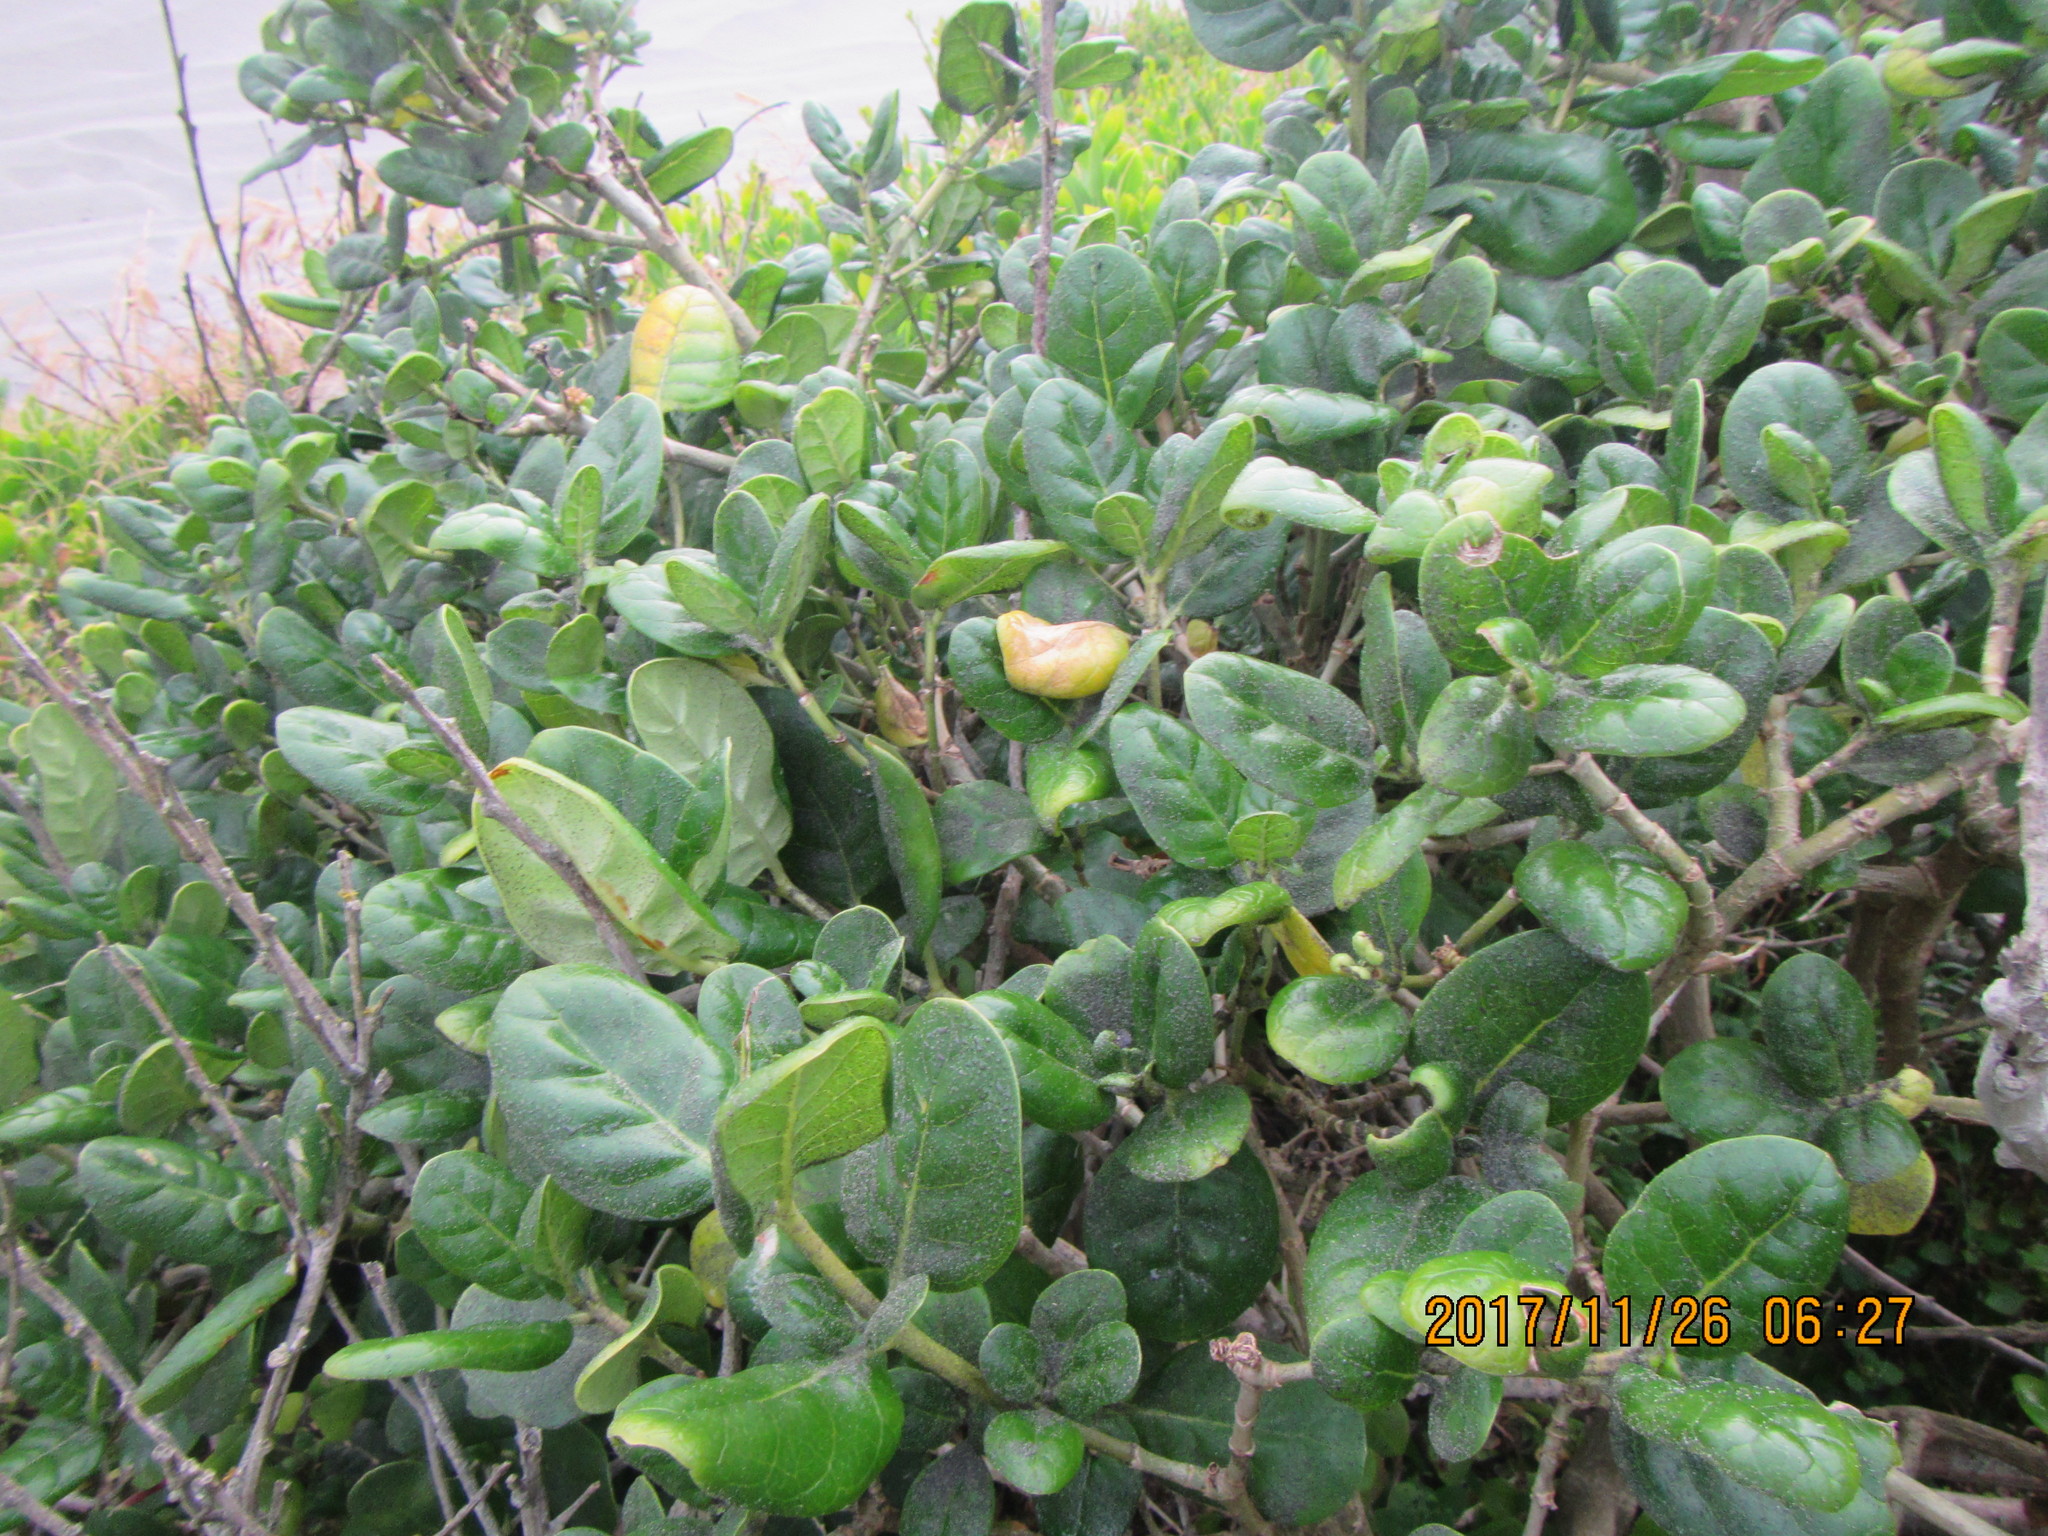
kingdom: Plantae
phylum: Tracheophyta
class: Magnoliopsida
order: Gentianales
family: Rubiaceae
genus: Coprosma
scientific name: Coprosma repens
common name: Tree bedstraw
